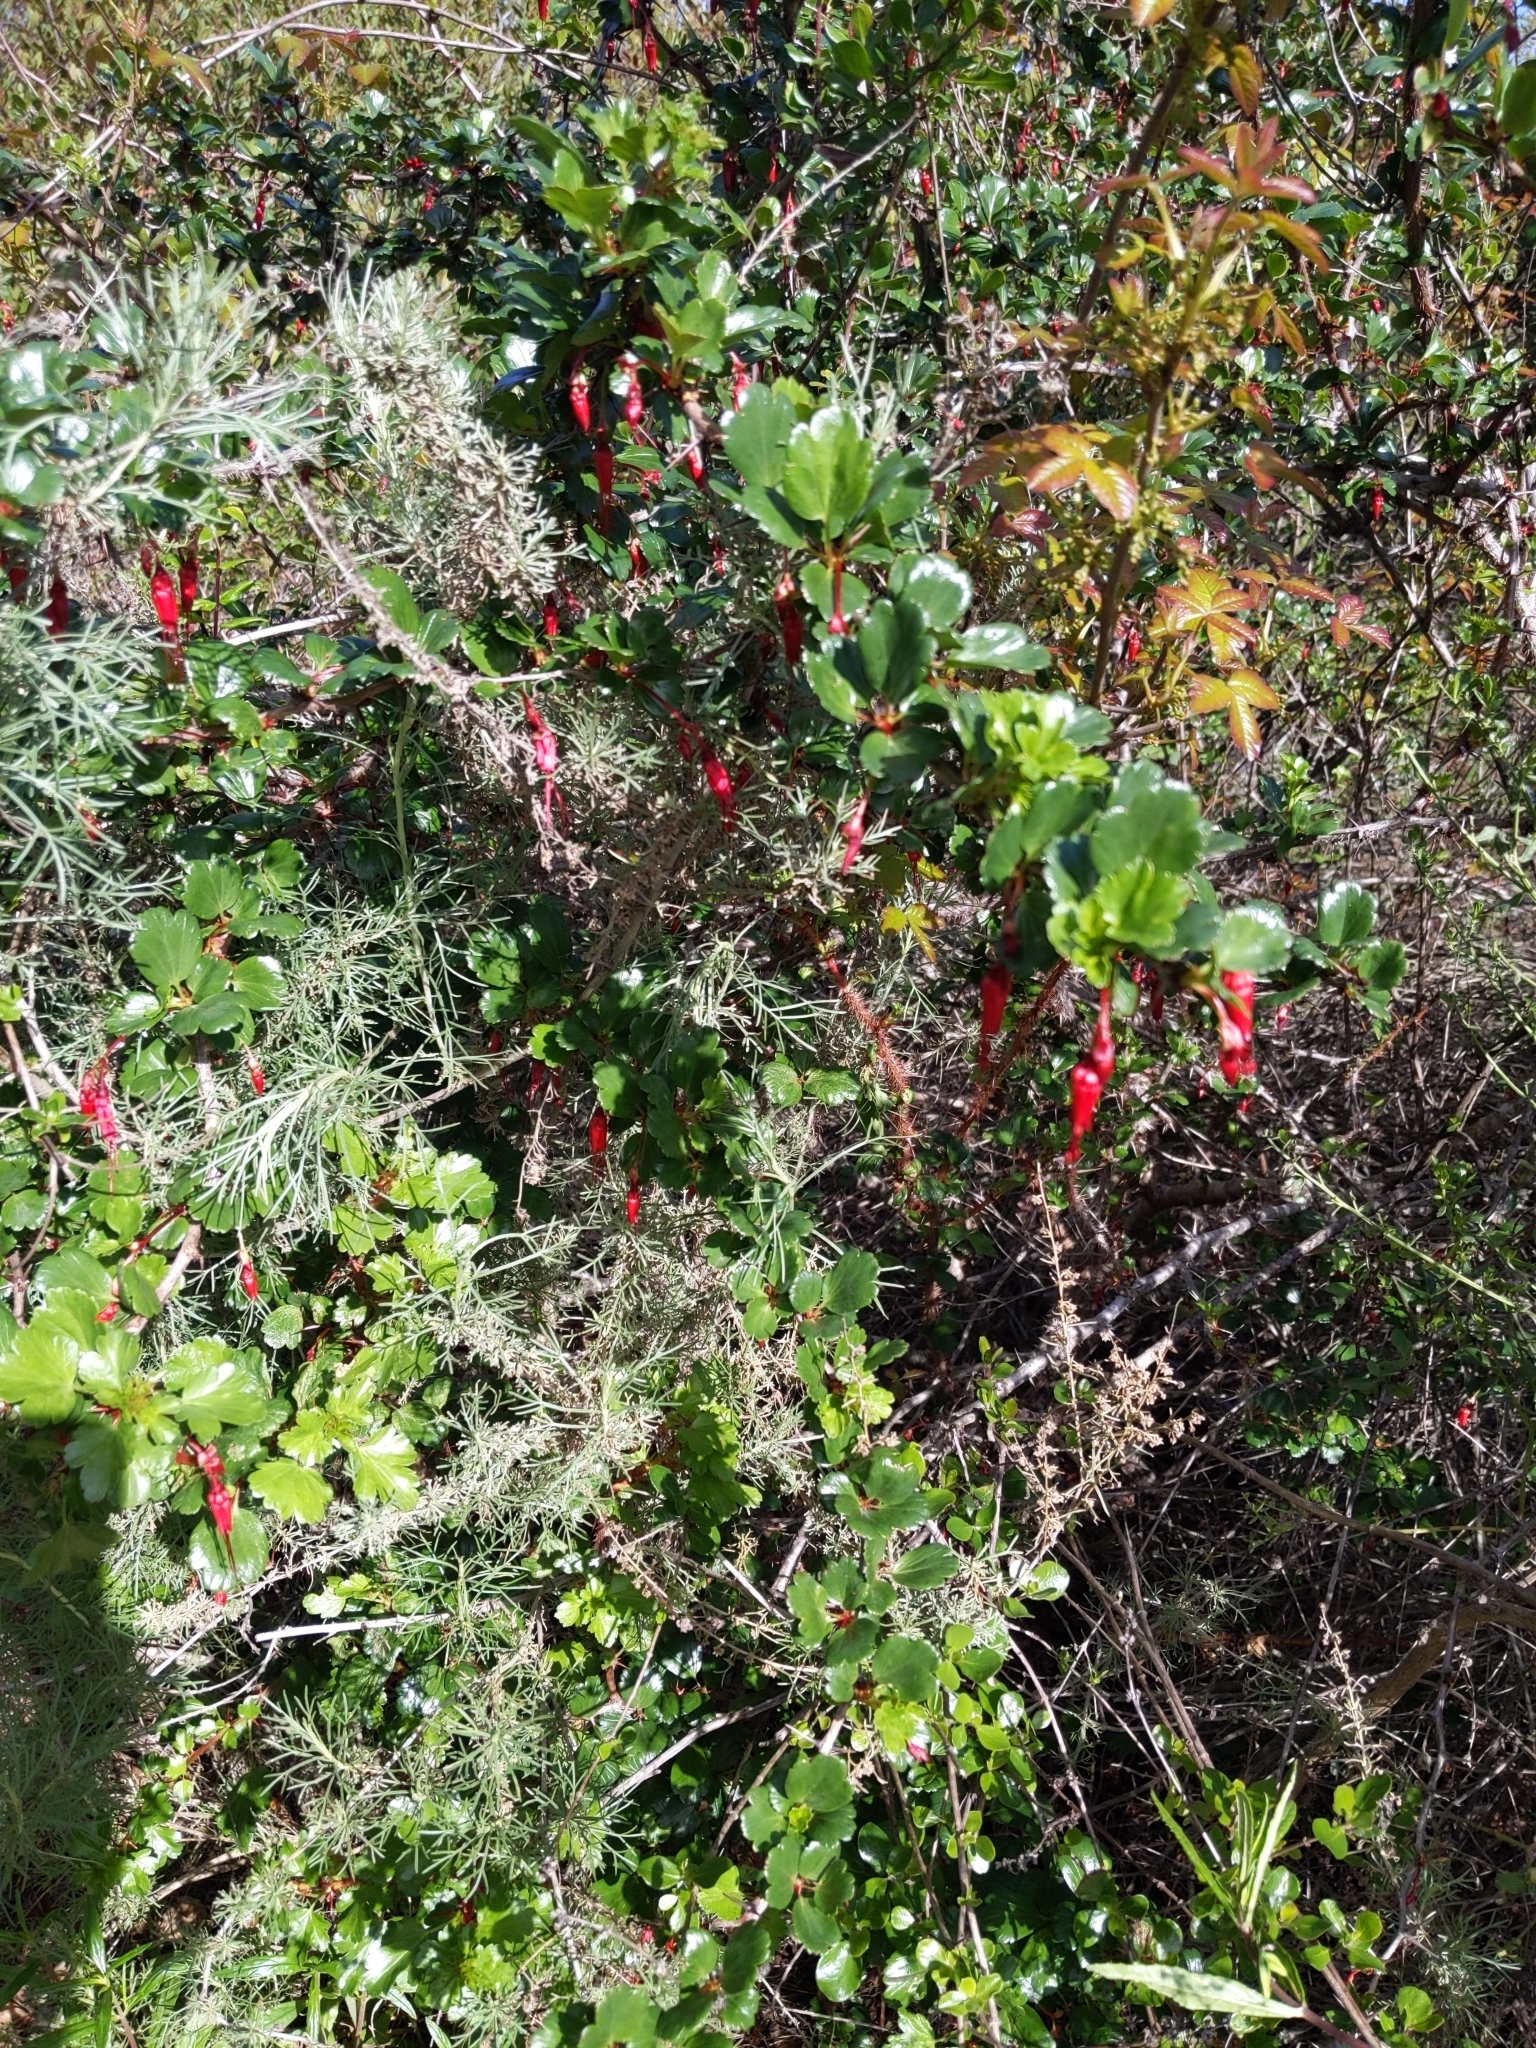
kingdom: Plantae
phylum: Tracheophyta
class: Magnoliopsida
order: Saxifragales
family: Grossulariaceae
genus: Ribes
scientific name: Ribes speciosum
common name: Fuchsia-flower gooseberry
